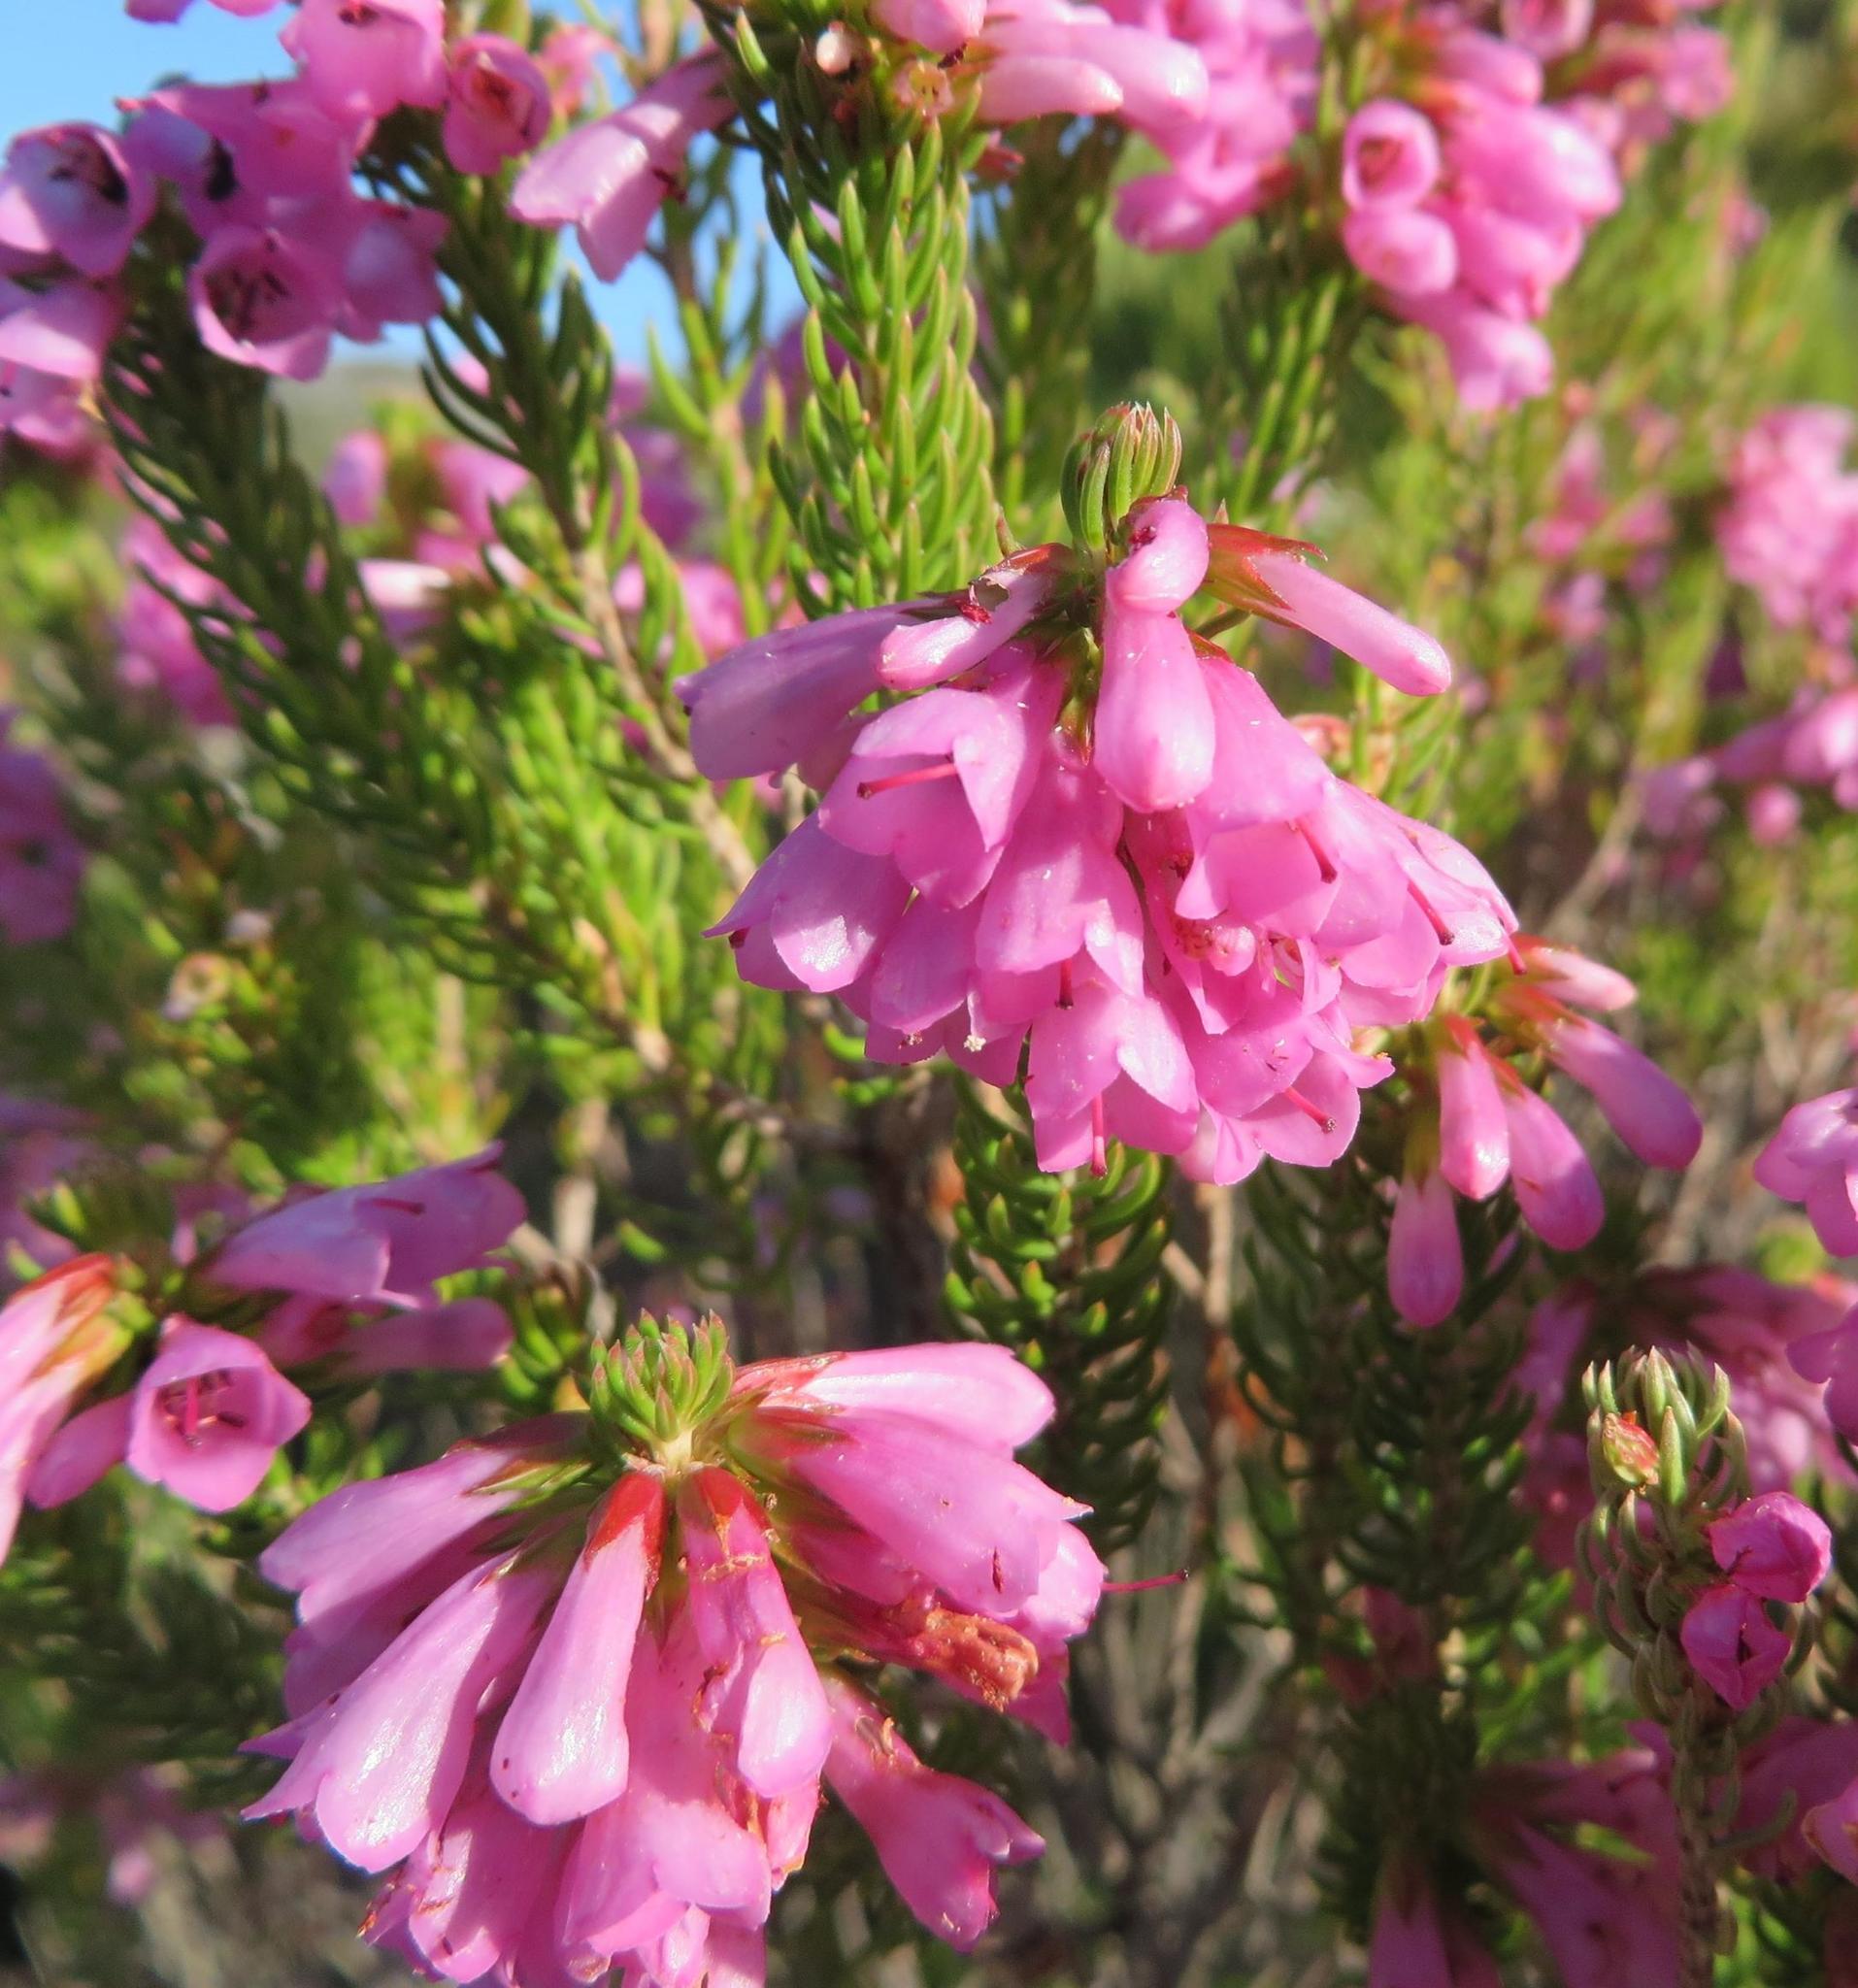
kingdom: Plantae
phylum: Tracheophyta
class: Magnoliopsida
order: Ericales
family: Ericaceae
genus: Erica
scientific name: Erica abietina
